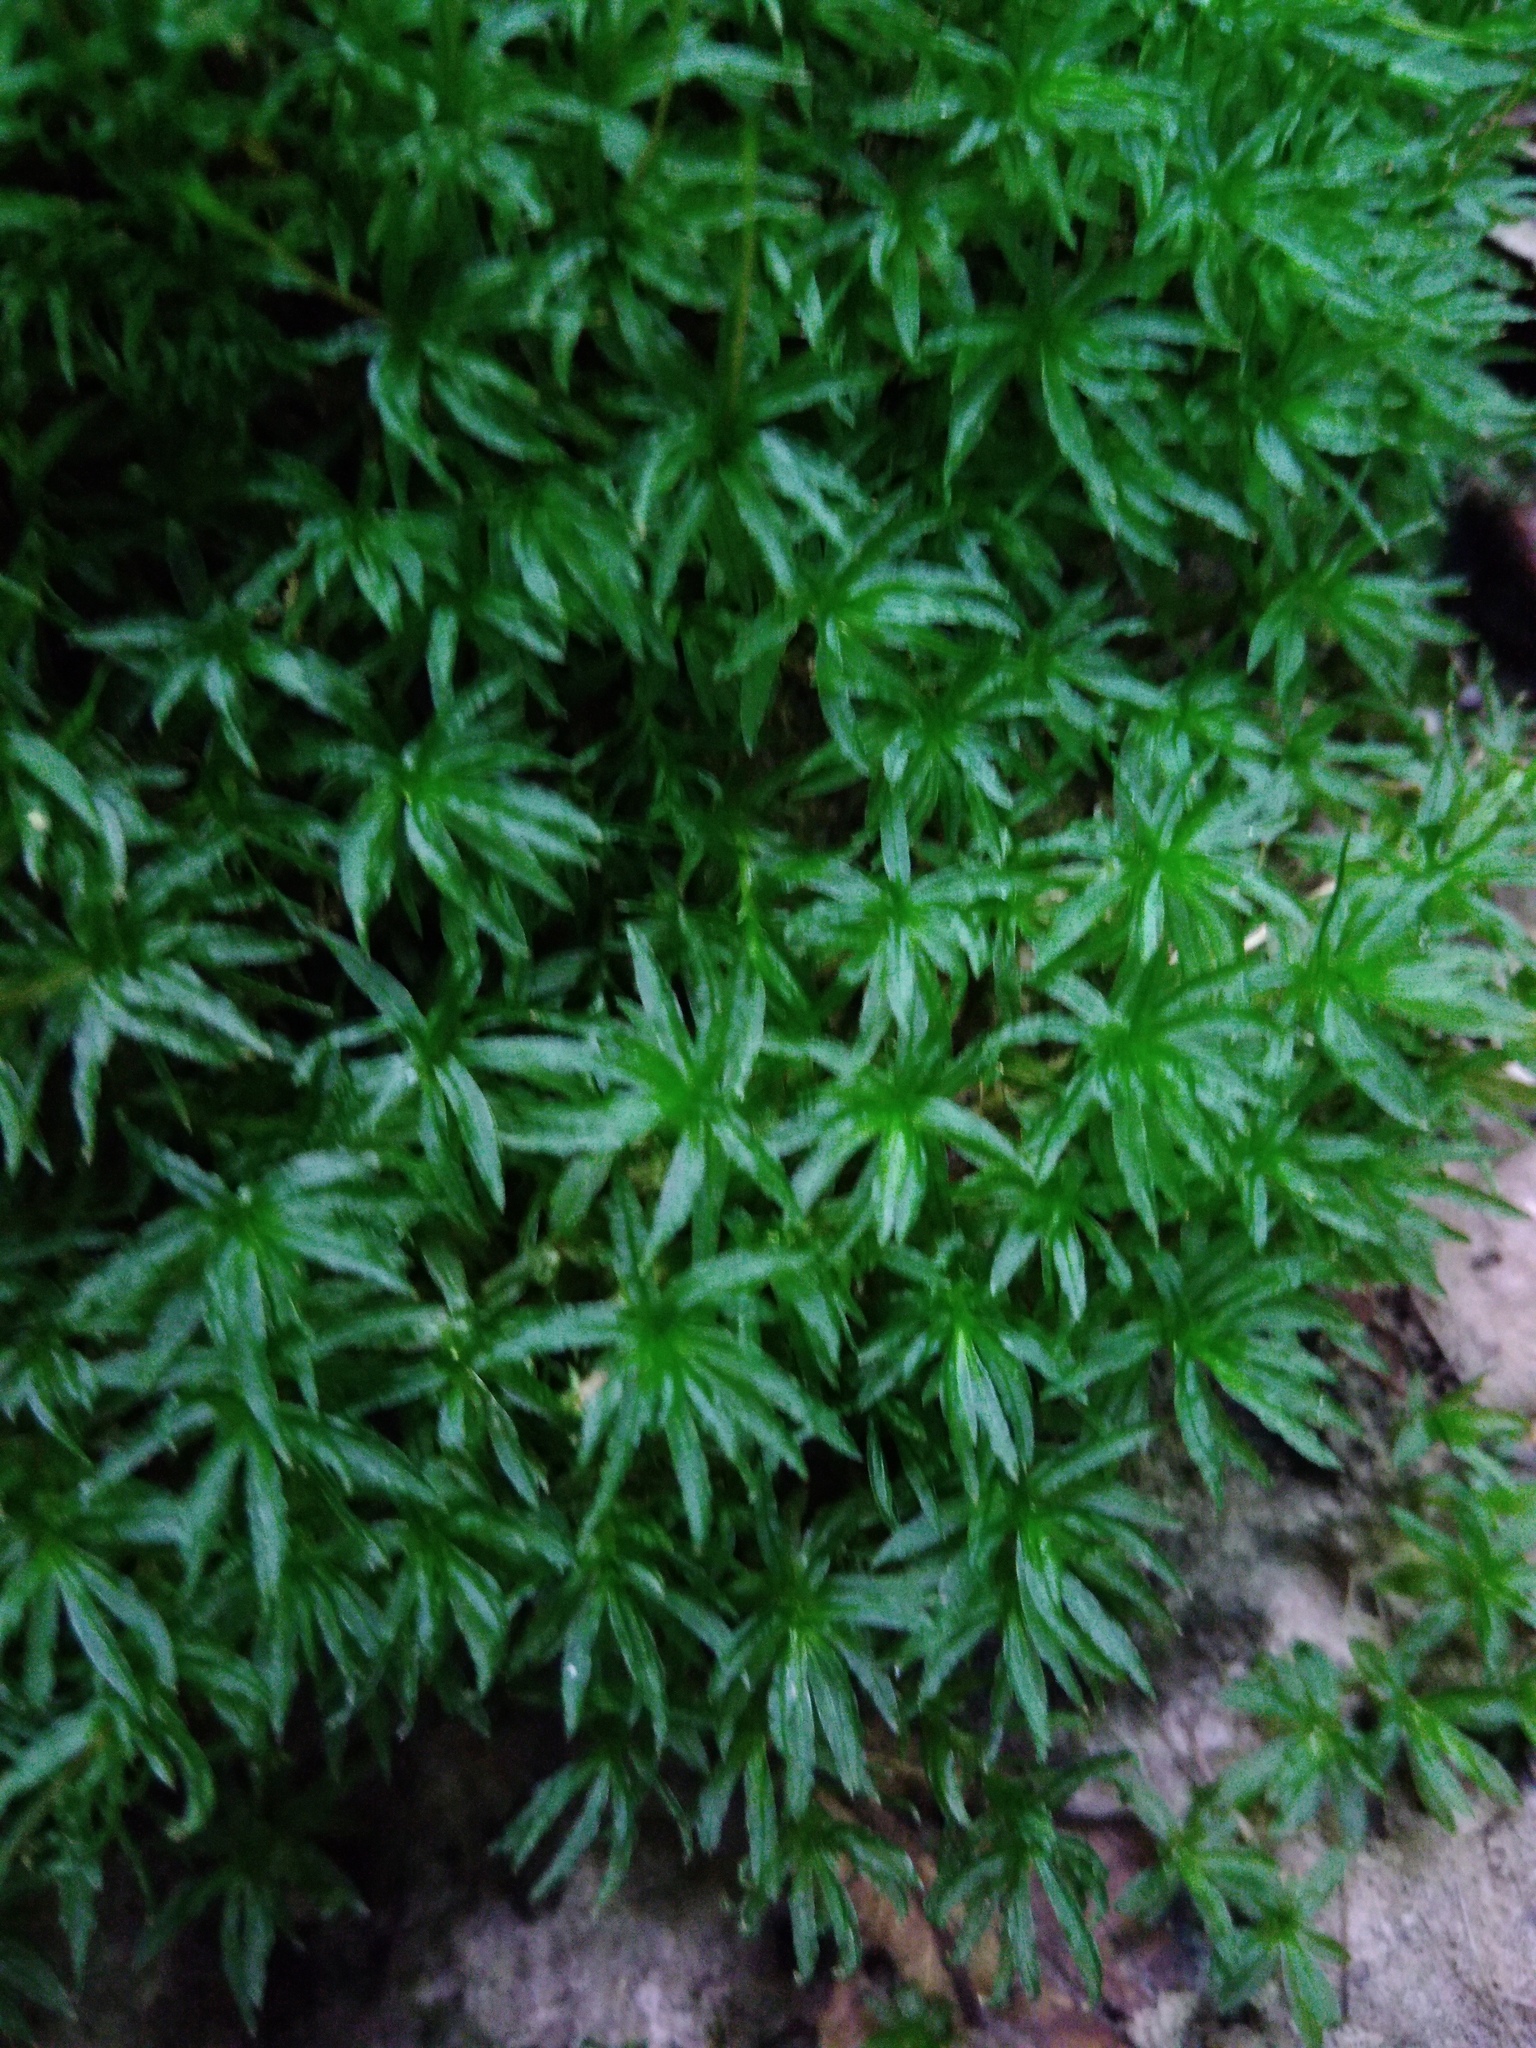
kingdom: Plantae
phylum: Bryophyta
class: Polytrichopsida
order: Polytrichales
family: Polytrichaceae
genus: Atrichum
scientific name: Atrichum undulatum
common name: Common smoothcap
